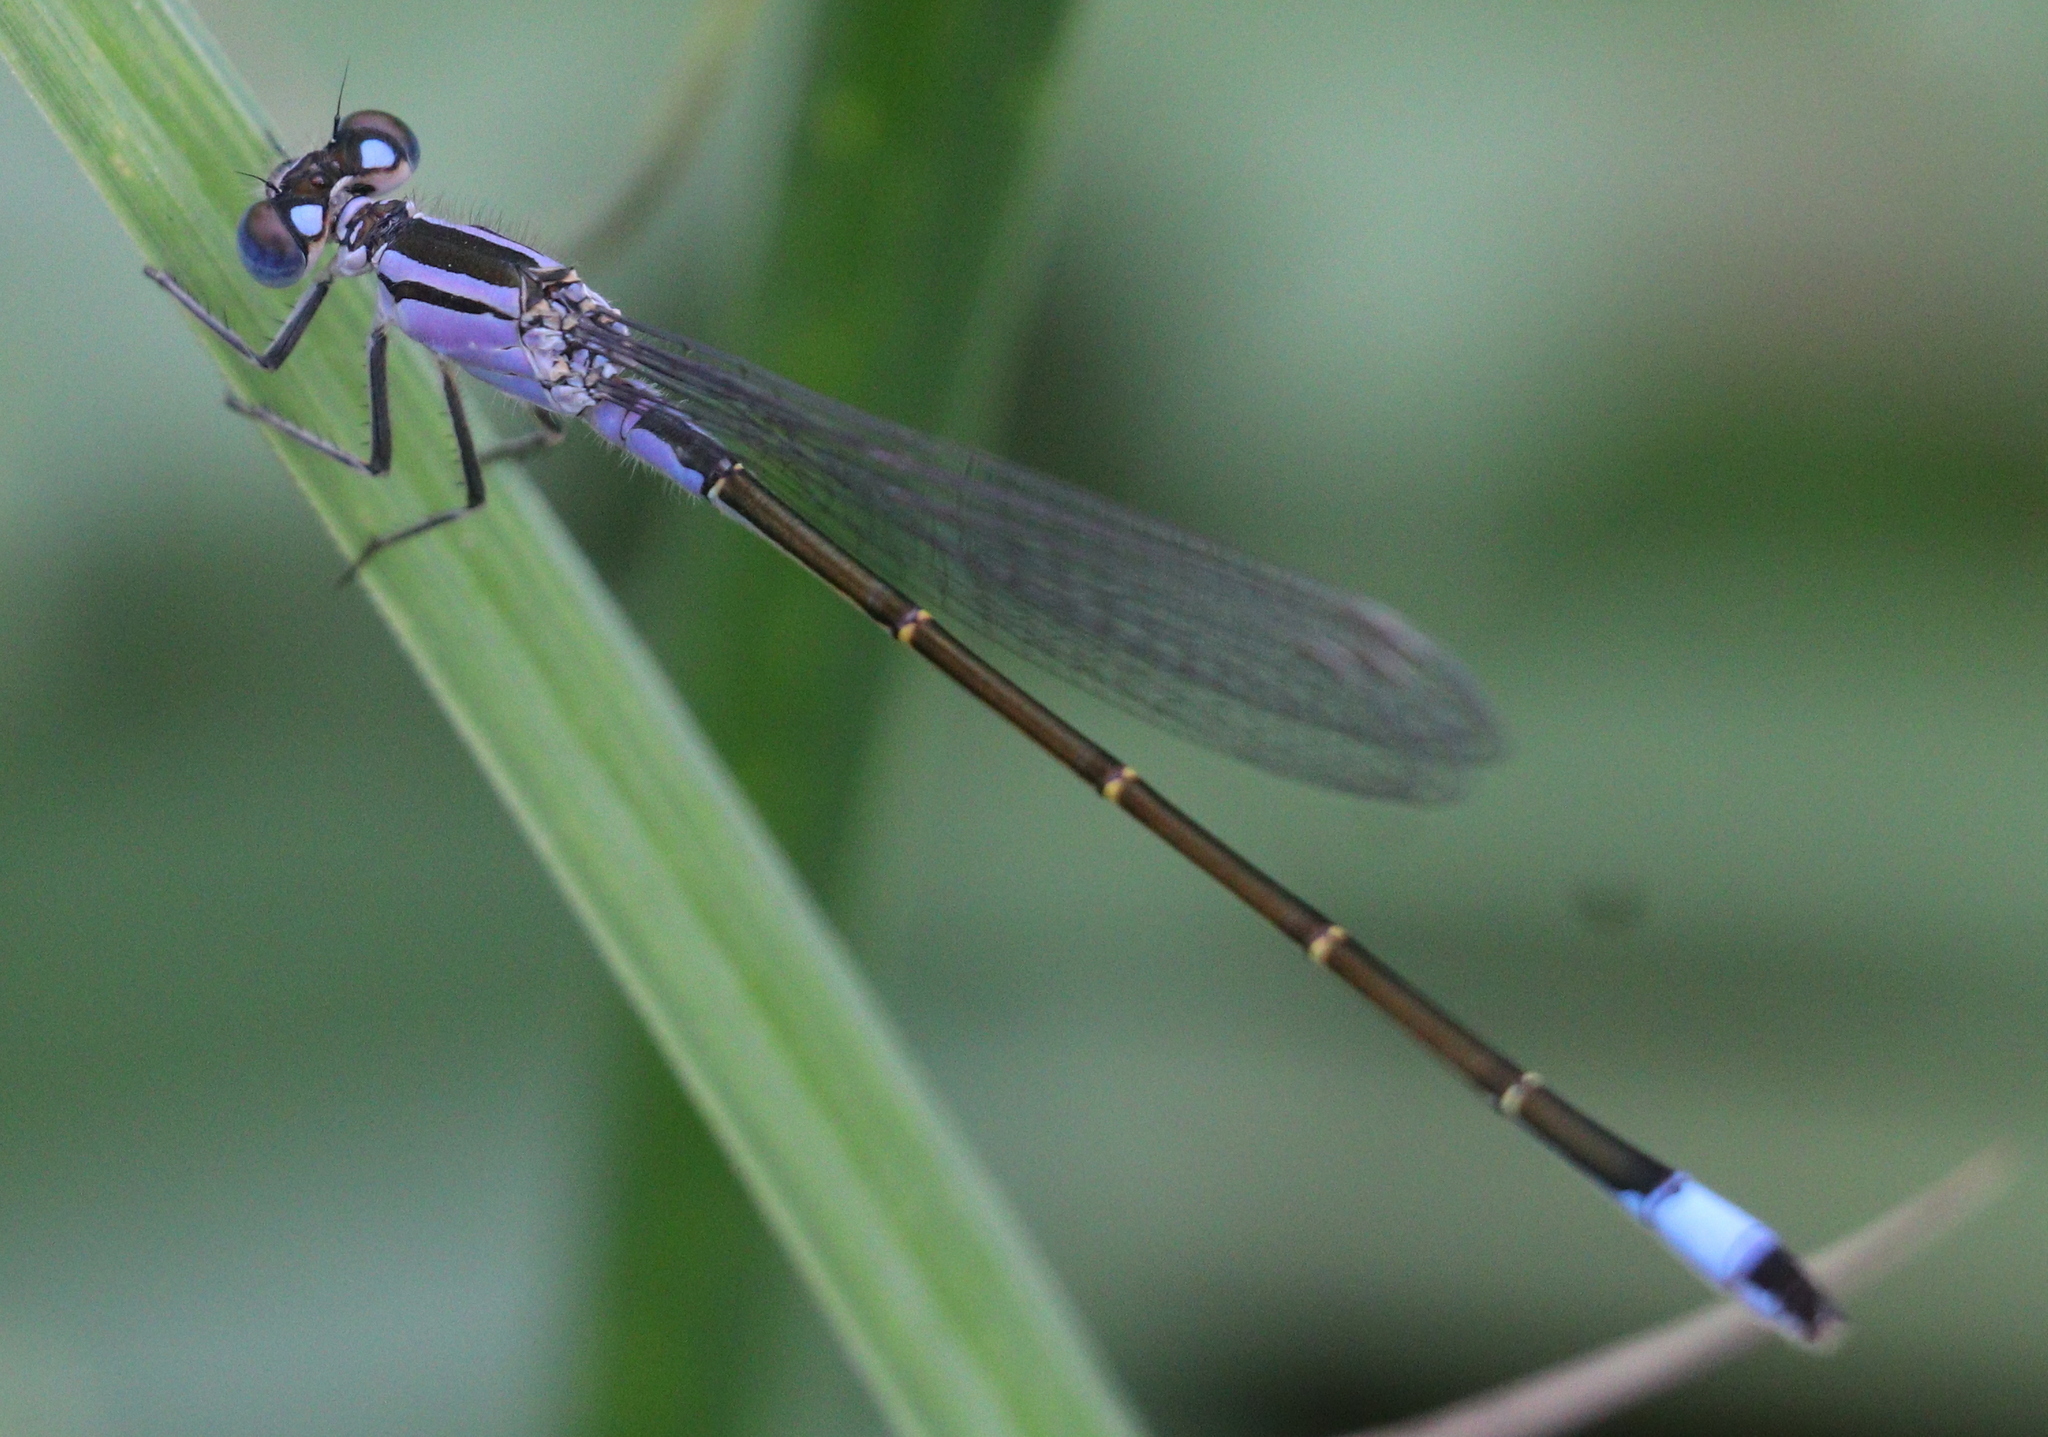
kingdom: Animalia
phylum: Arthropoda
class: Insecta
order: Odonata
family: Coenagrionidae
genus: Ischnura
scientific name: Ischnura elegans
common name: Blue-tailed damselfly
